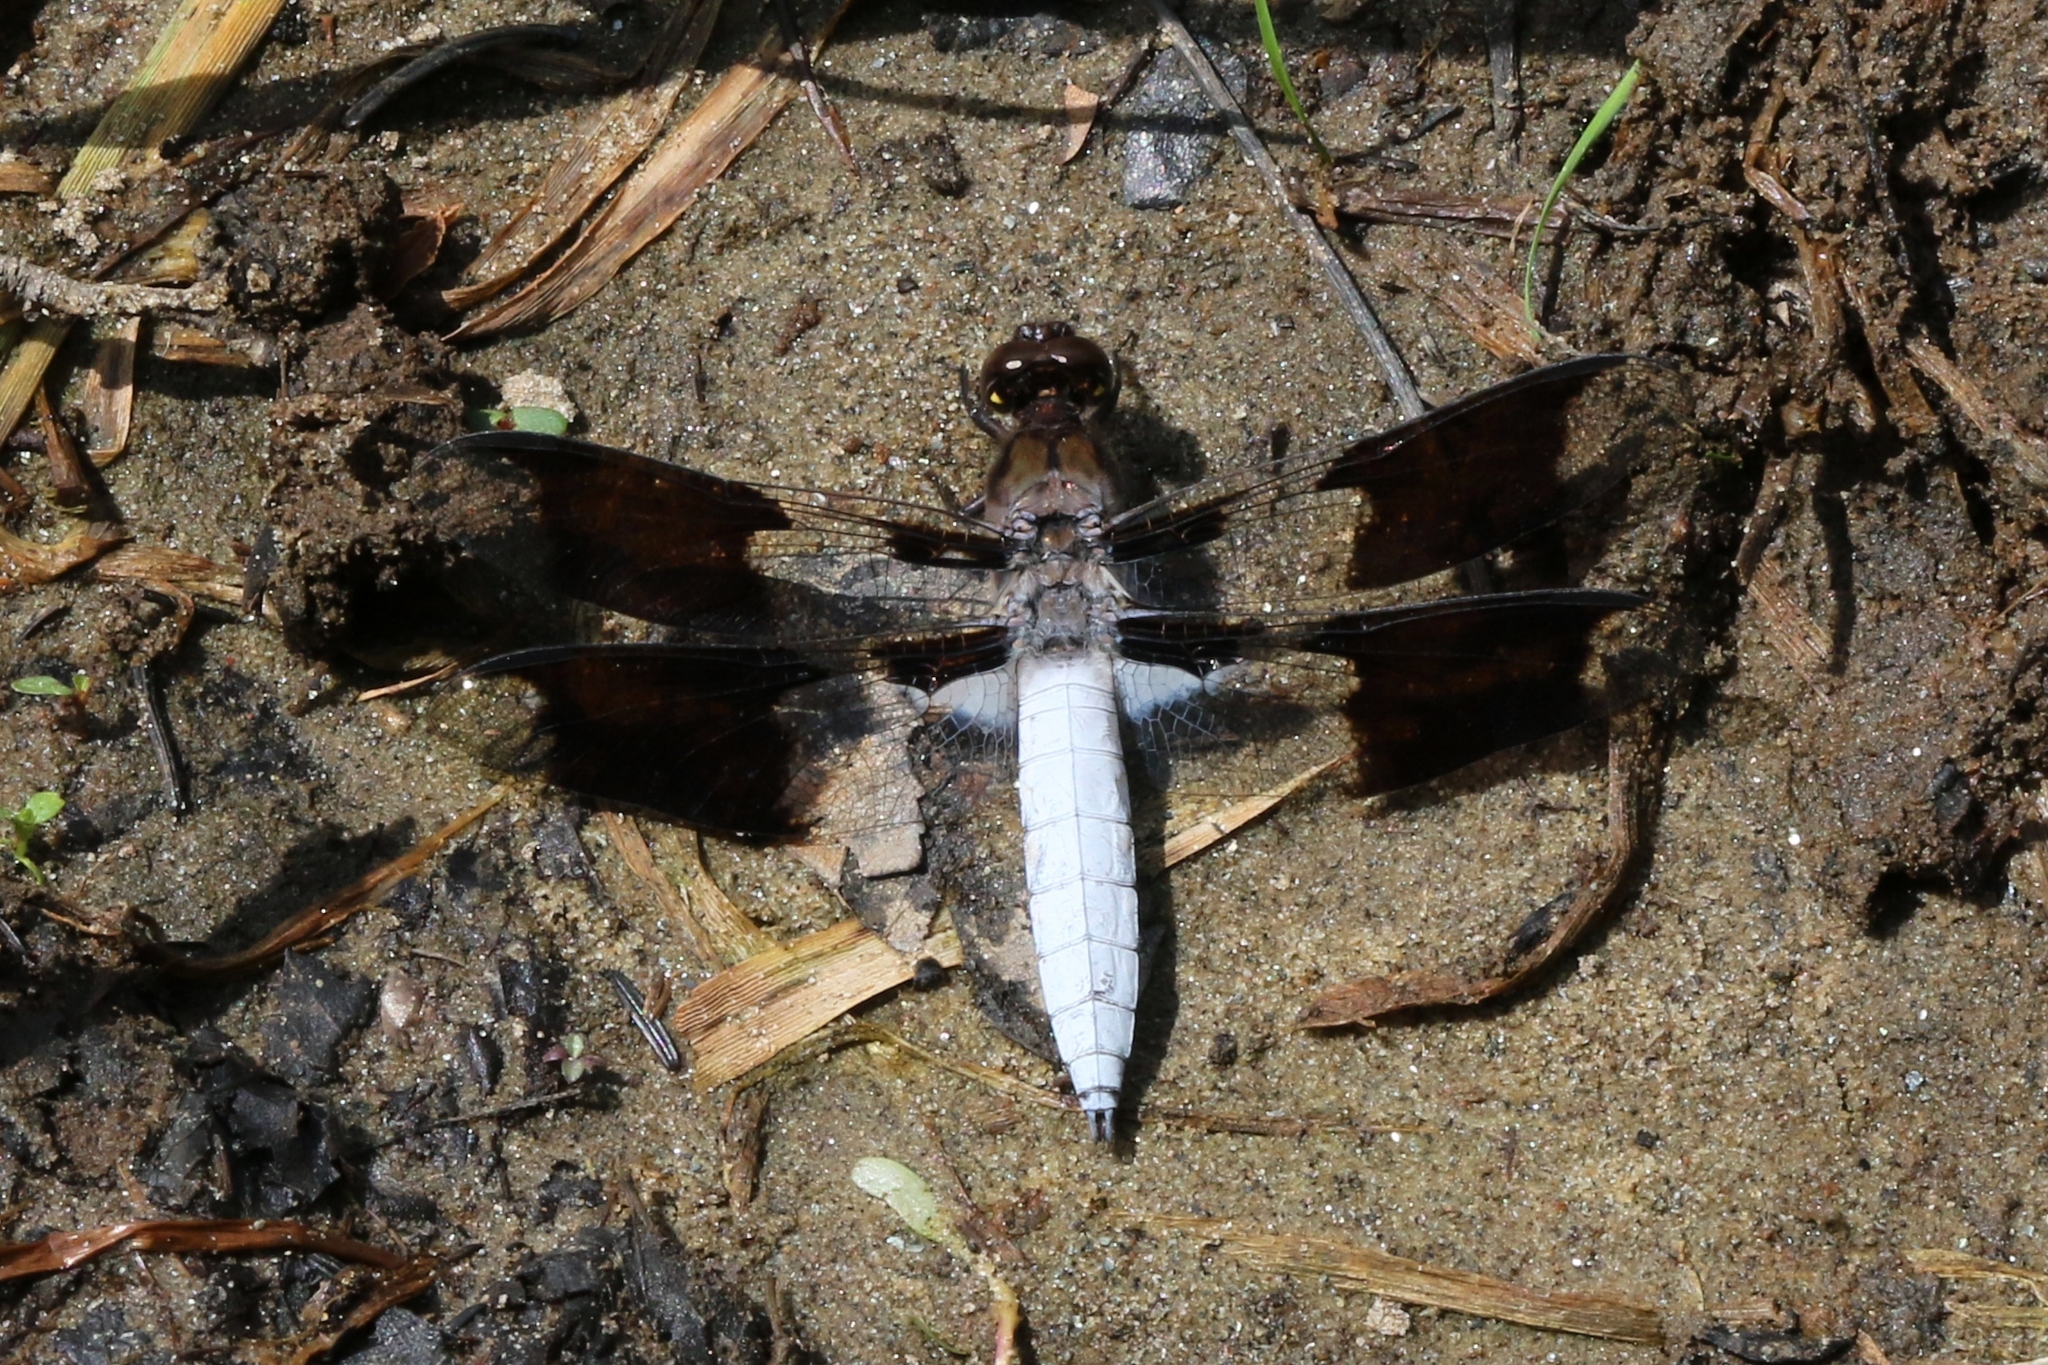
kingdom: Animalia
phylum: Arthropoda
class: Insecta
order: Odonata
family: Libellulidae
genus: Plathemis
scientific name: Plathemis lydia
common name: Common whitetail
